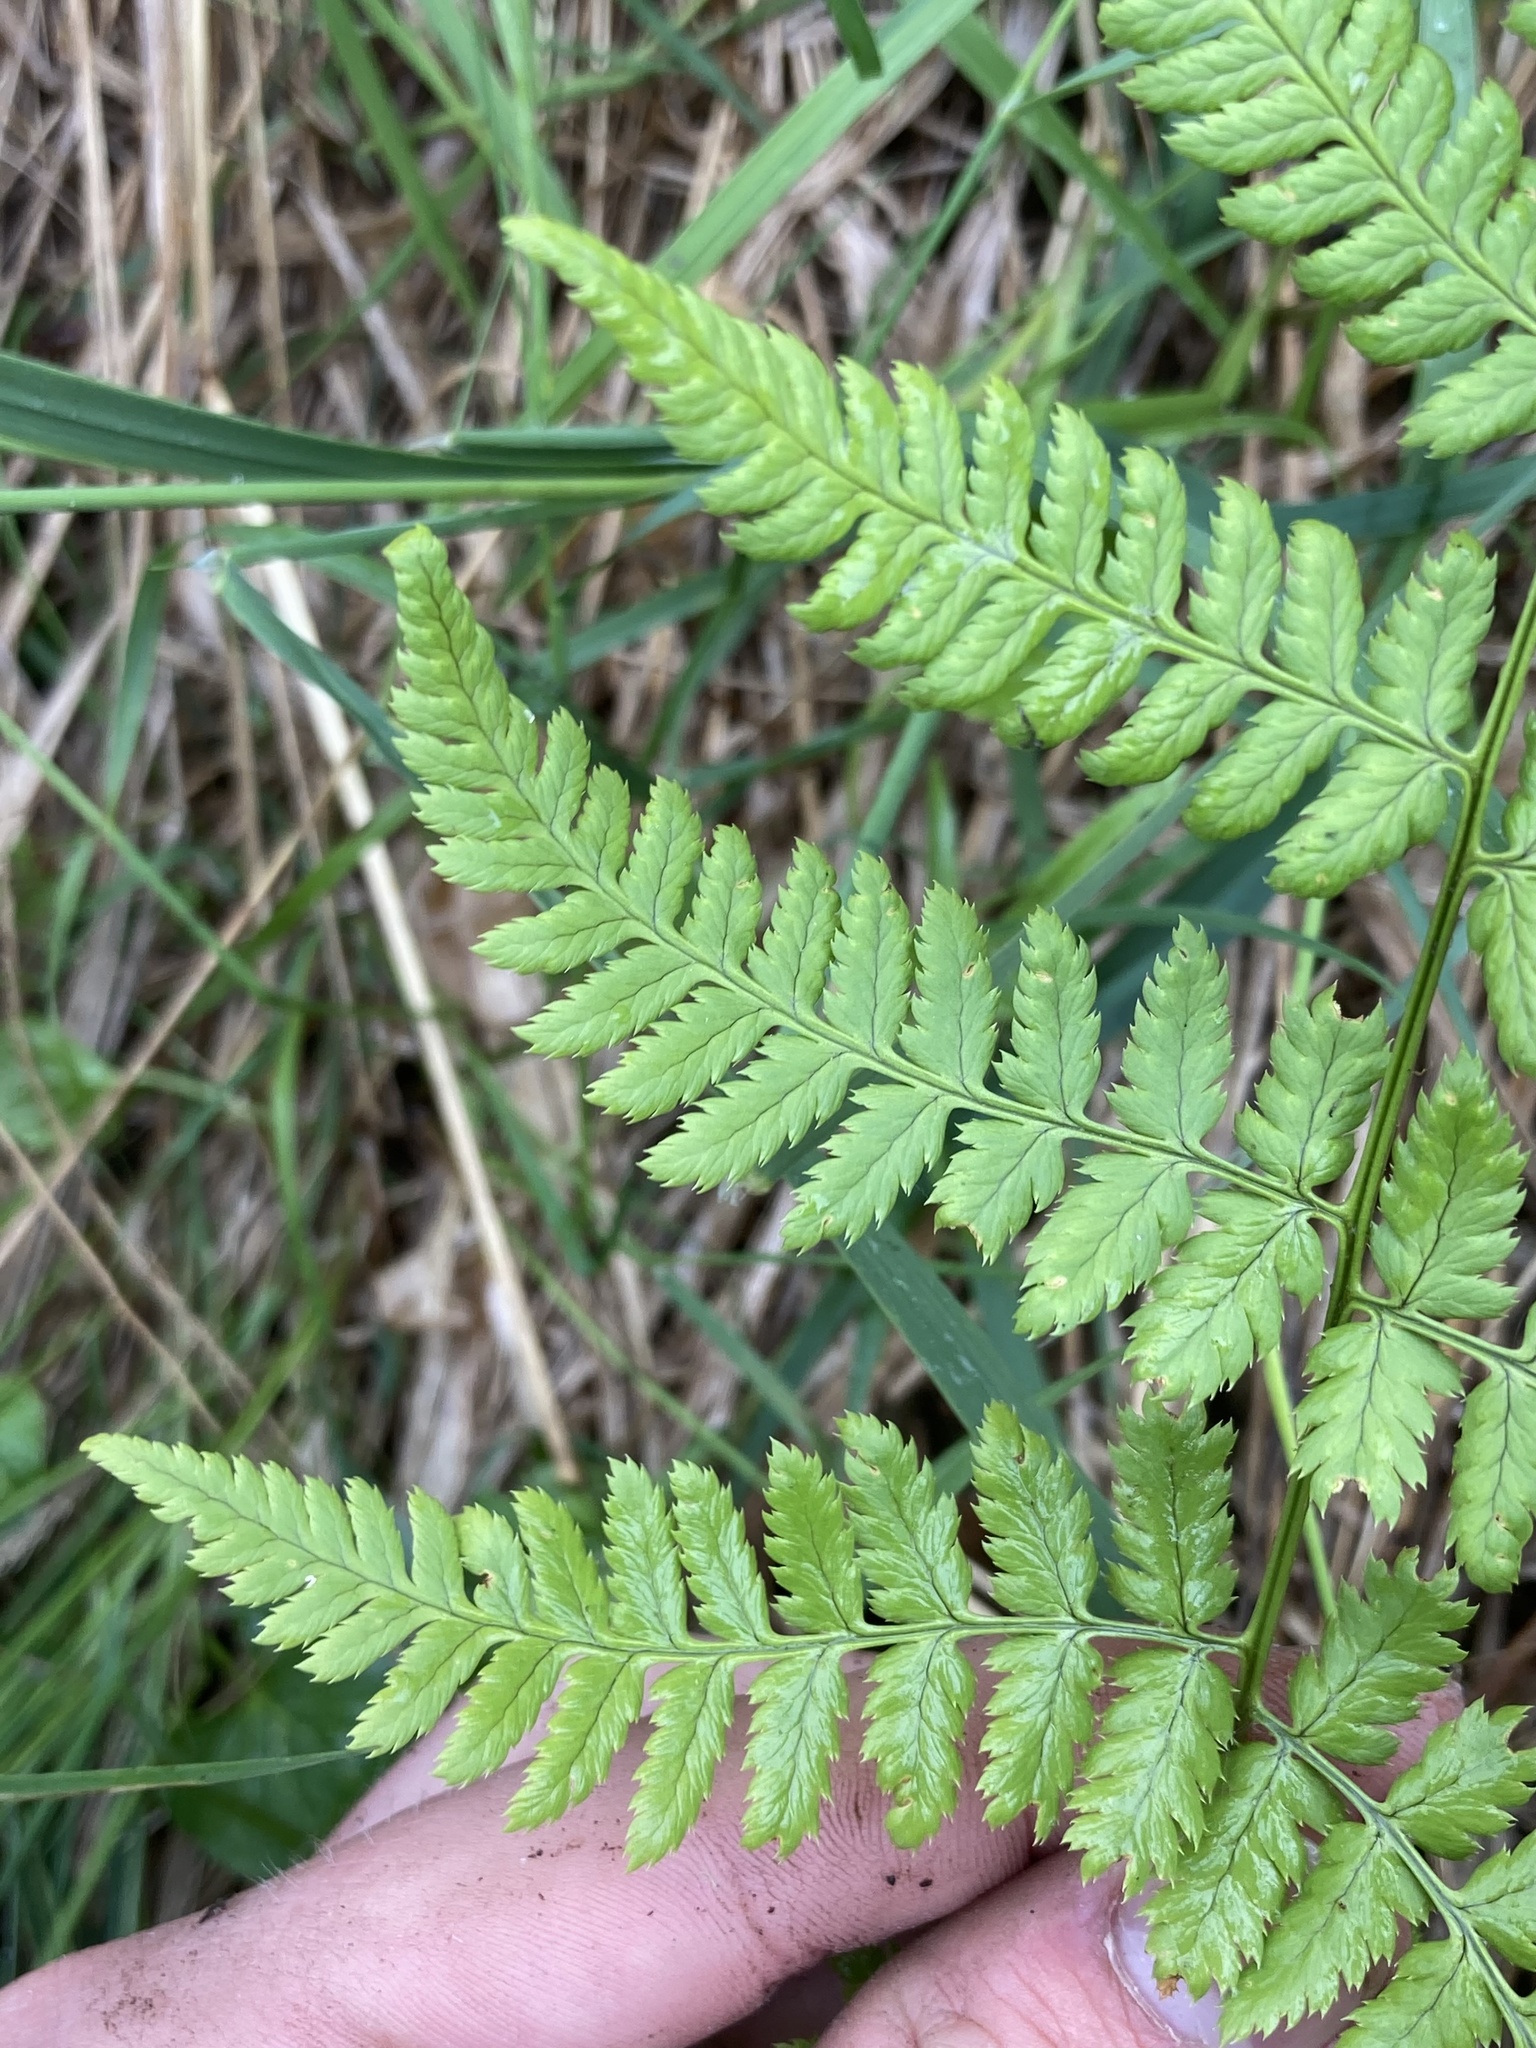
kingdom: Plantae
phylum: Tracheophyta
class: Polypodiopsida
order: Polypodiales
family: Dryopteridaceae
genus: Dryopteris
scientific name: Dryopteris carthusiana
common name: Narrow buckler-fern
